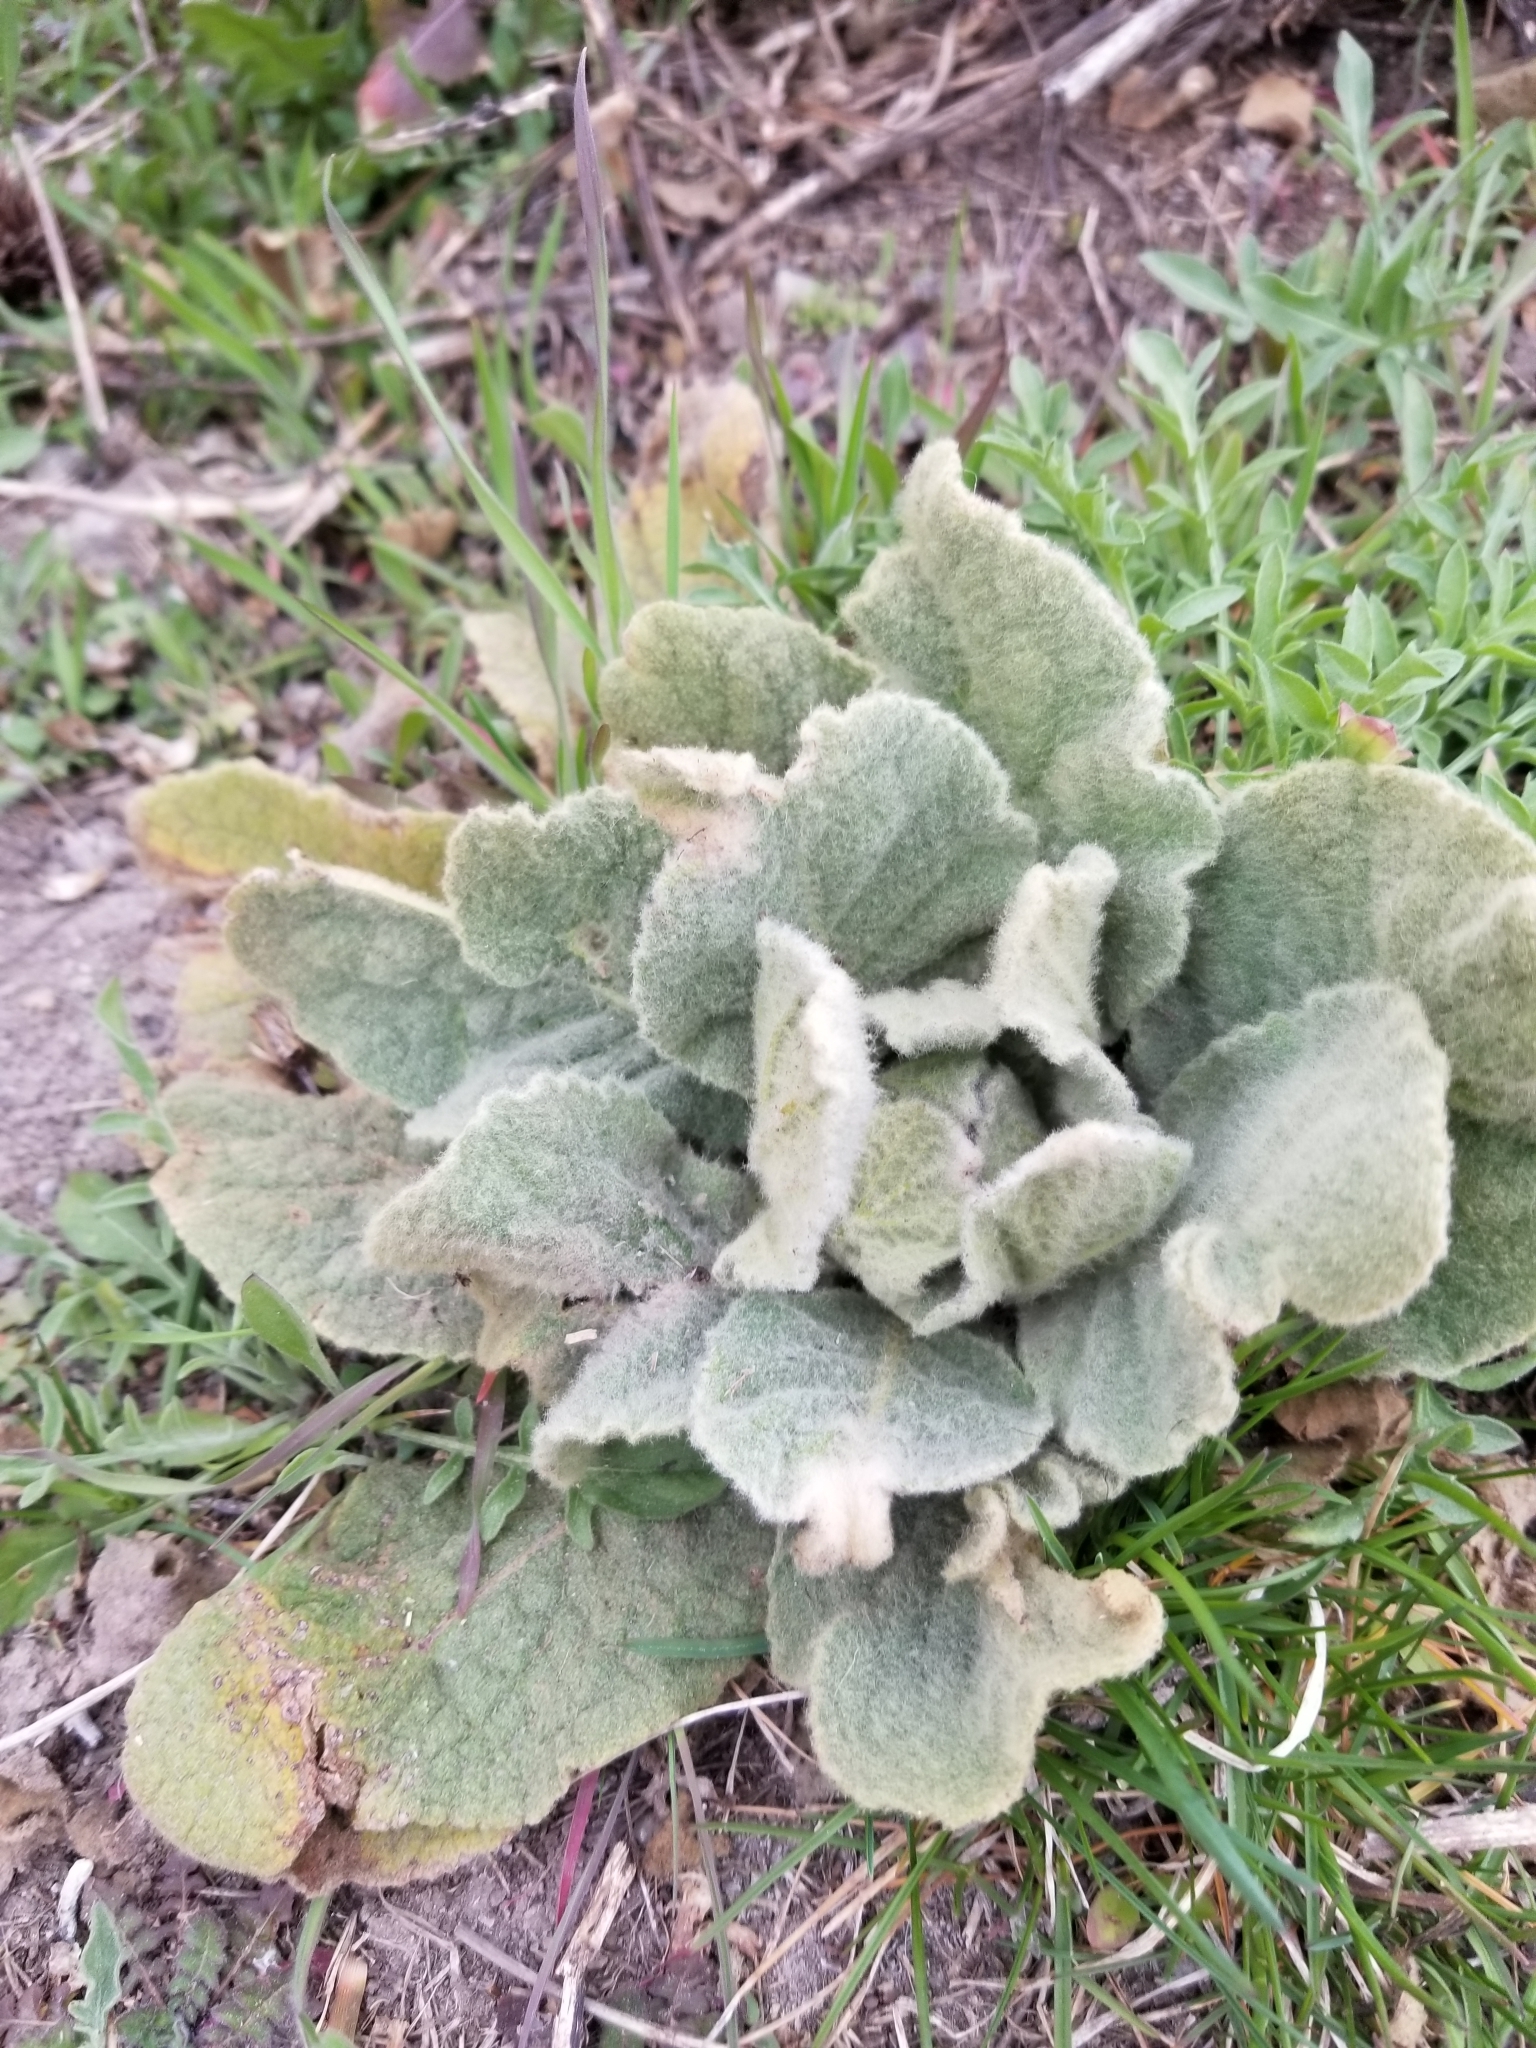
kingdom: Plantae
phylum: Tracheophyta
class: Magnoliopsida
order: Lamiales
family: Scrophulariaceae
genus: Verbascum
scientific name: Verbascum thapsus
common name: Common mullein
